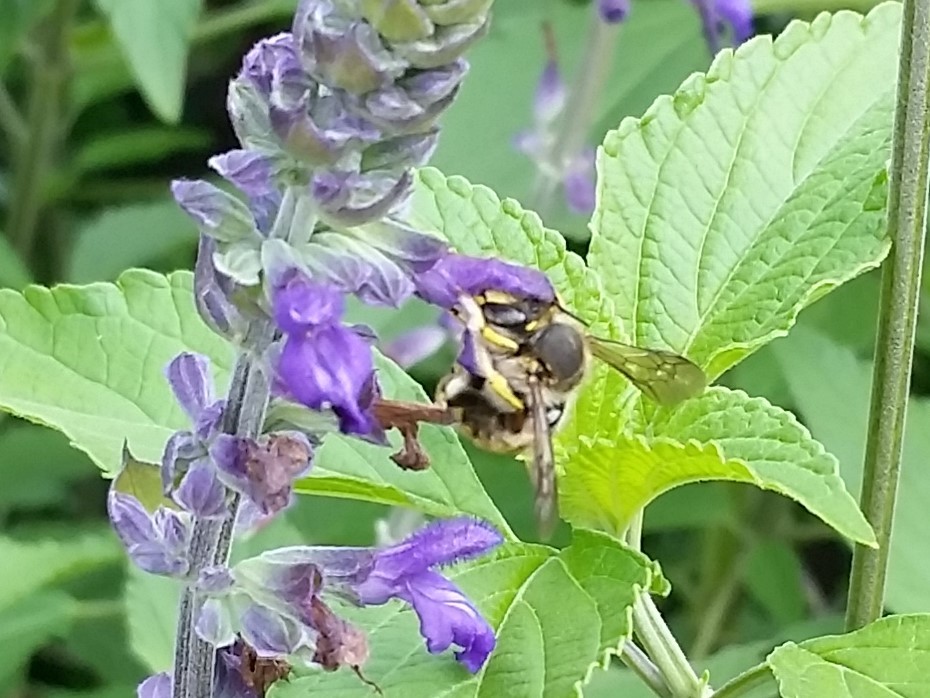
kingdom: Animalia
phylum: Arthropoda
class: Insecta
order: Hymenoptera
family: Megachilidae
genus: Anthidium
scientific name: Anthidium manicatum
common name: Wool carder bee
